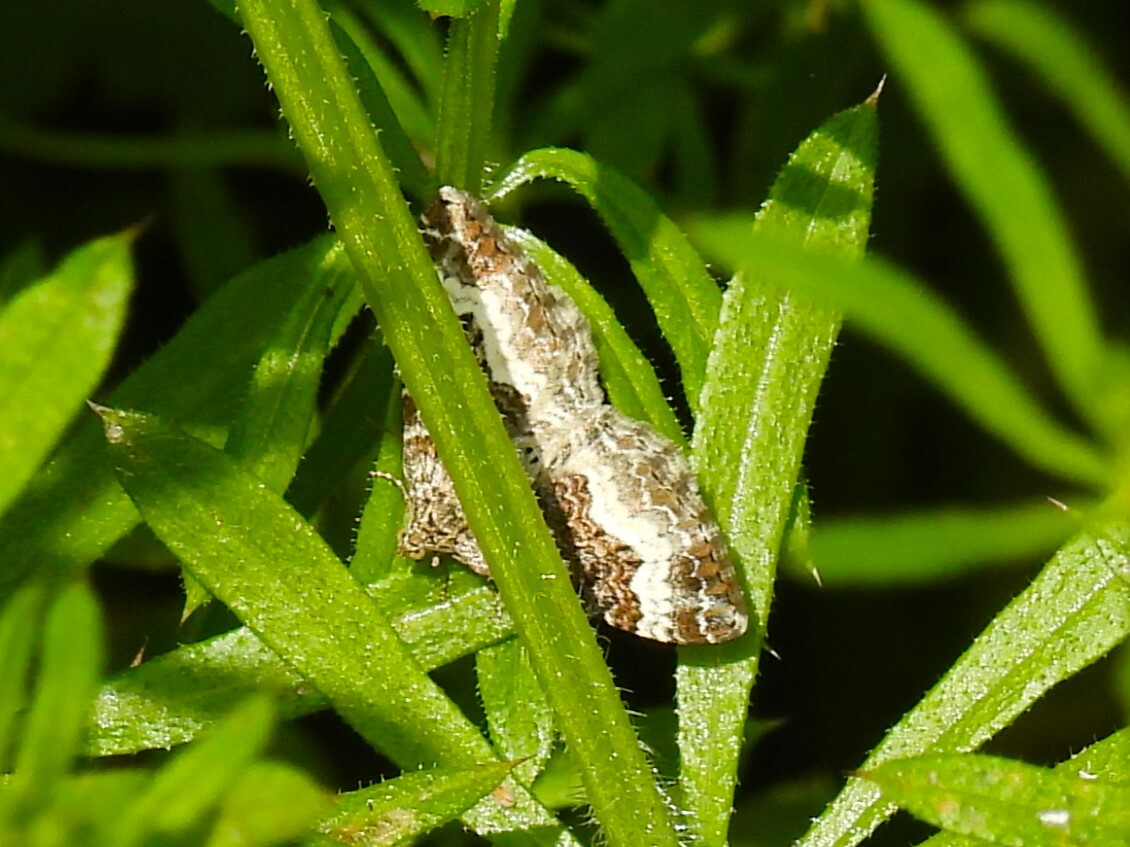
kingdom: Animalia
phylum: Arthropoda
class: Insecta
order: Lepidoptera
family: Geometridae
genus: Epirrhoe
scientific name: Epirrhoe alternata
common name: Common carpet
